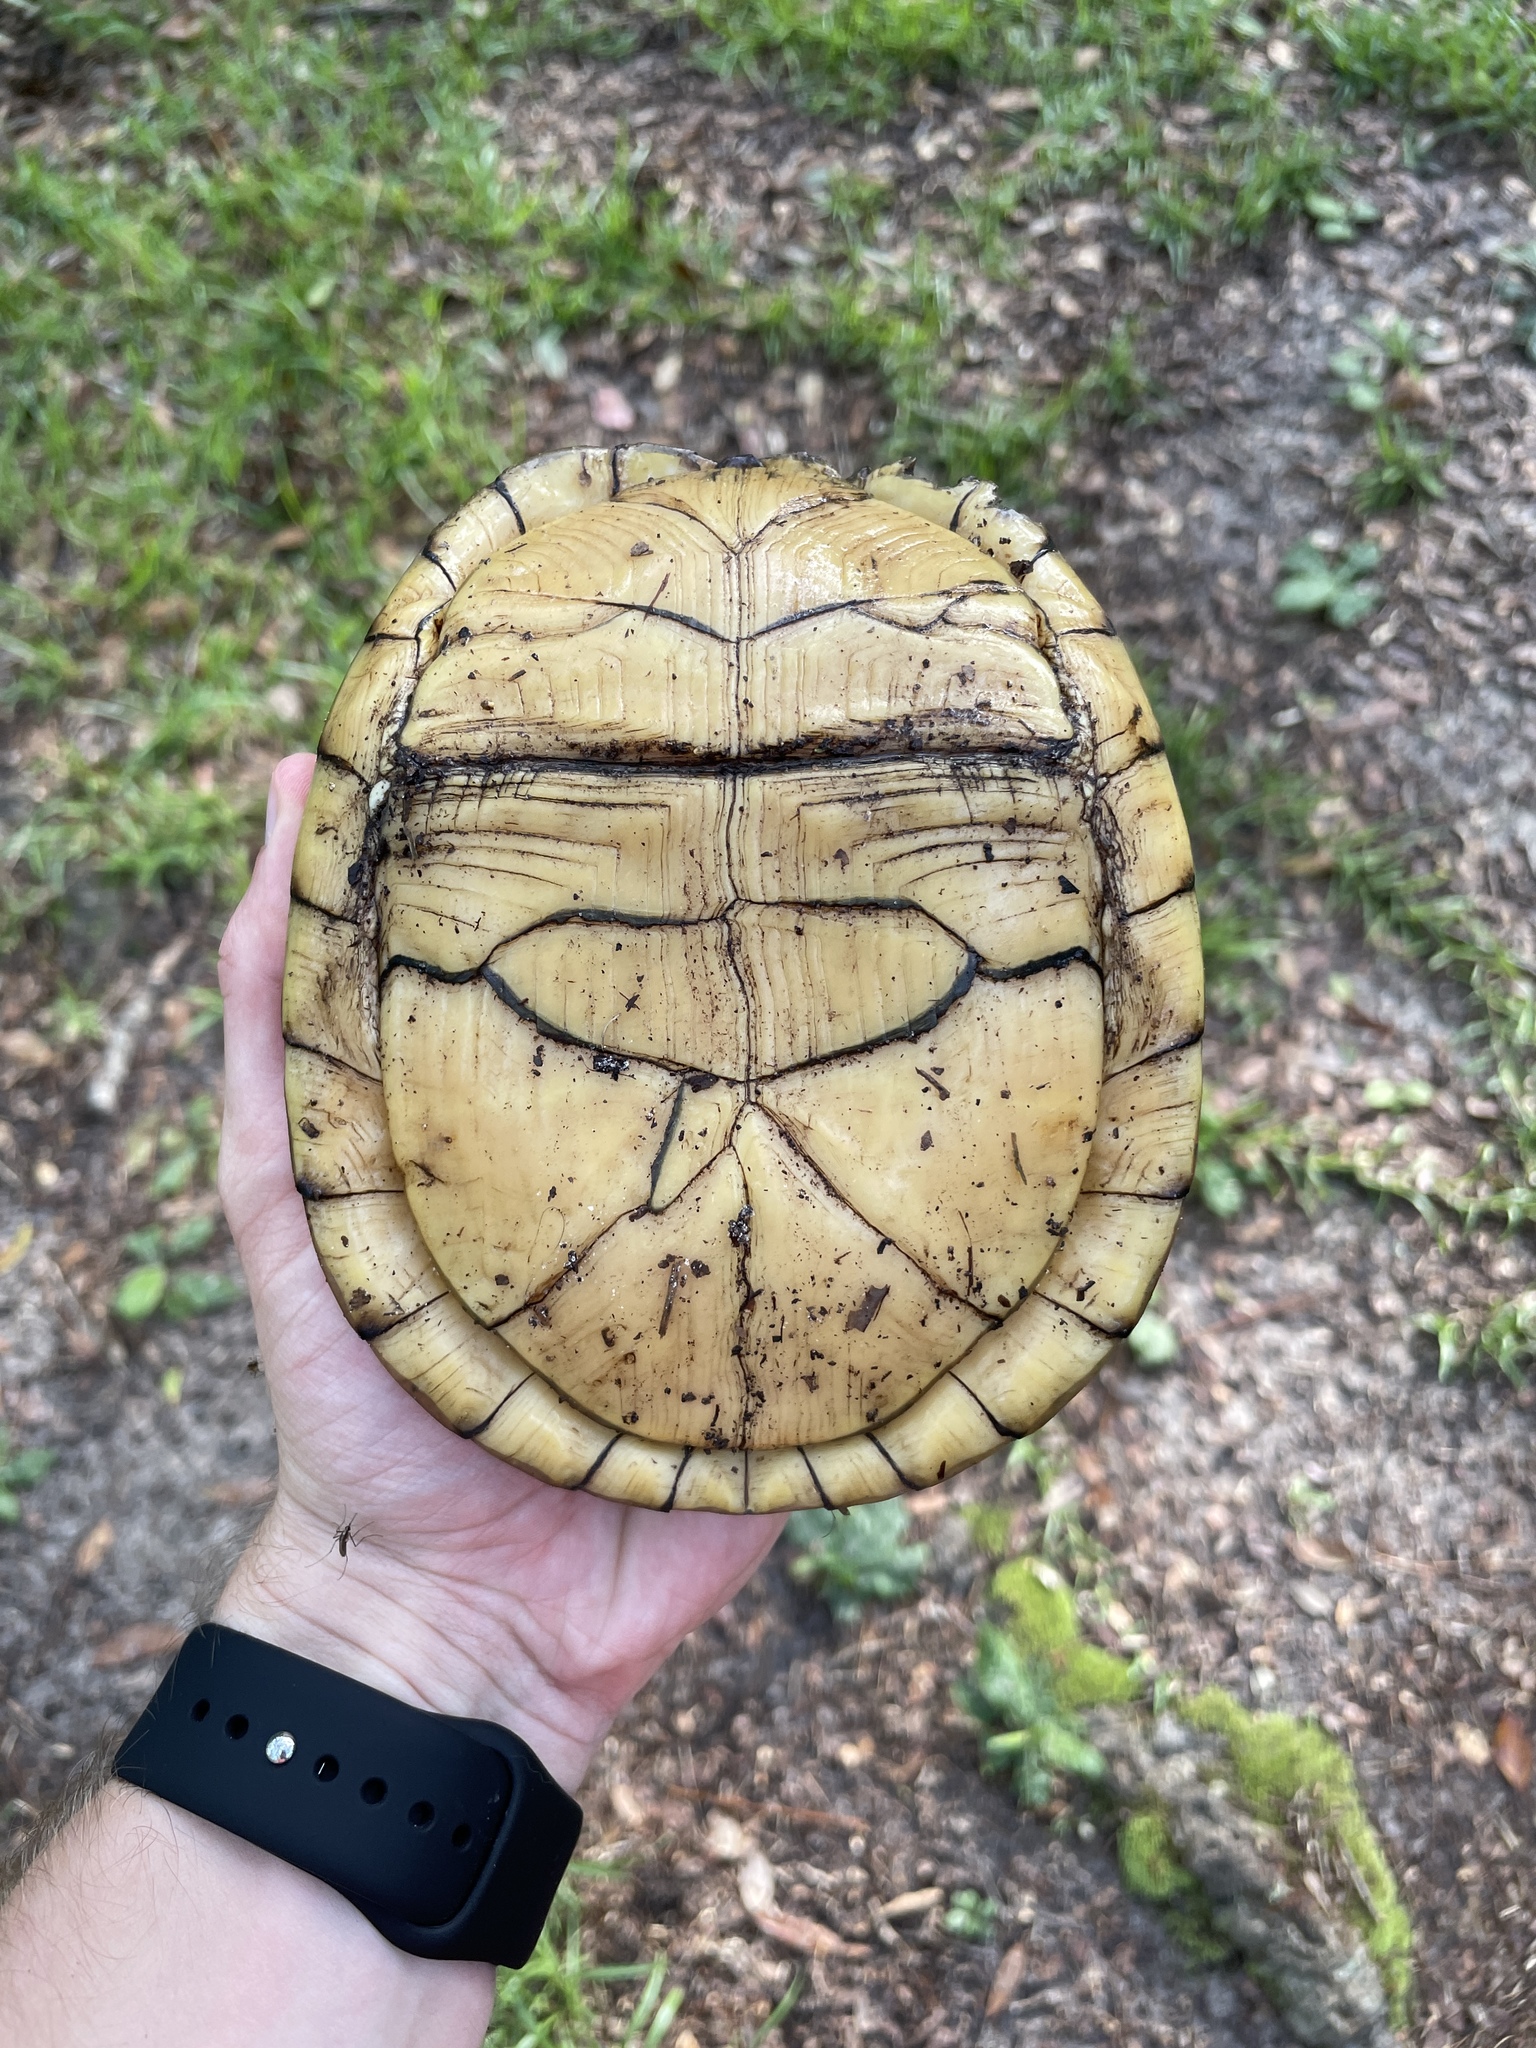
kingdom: Animalia
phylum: Chordata
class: Testudines
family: Emydidae
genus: Terrapene
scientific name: Terrapene carolina
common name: Common box turtle
